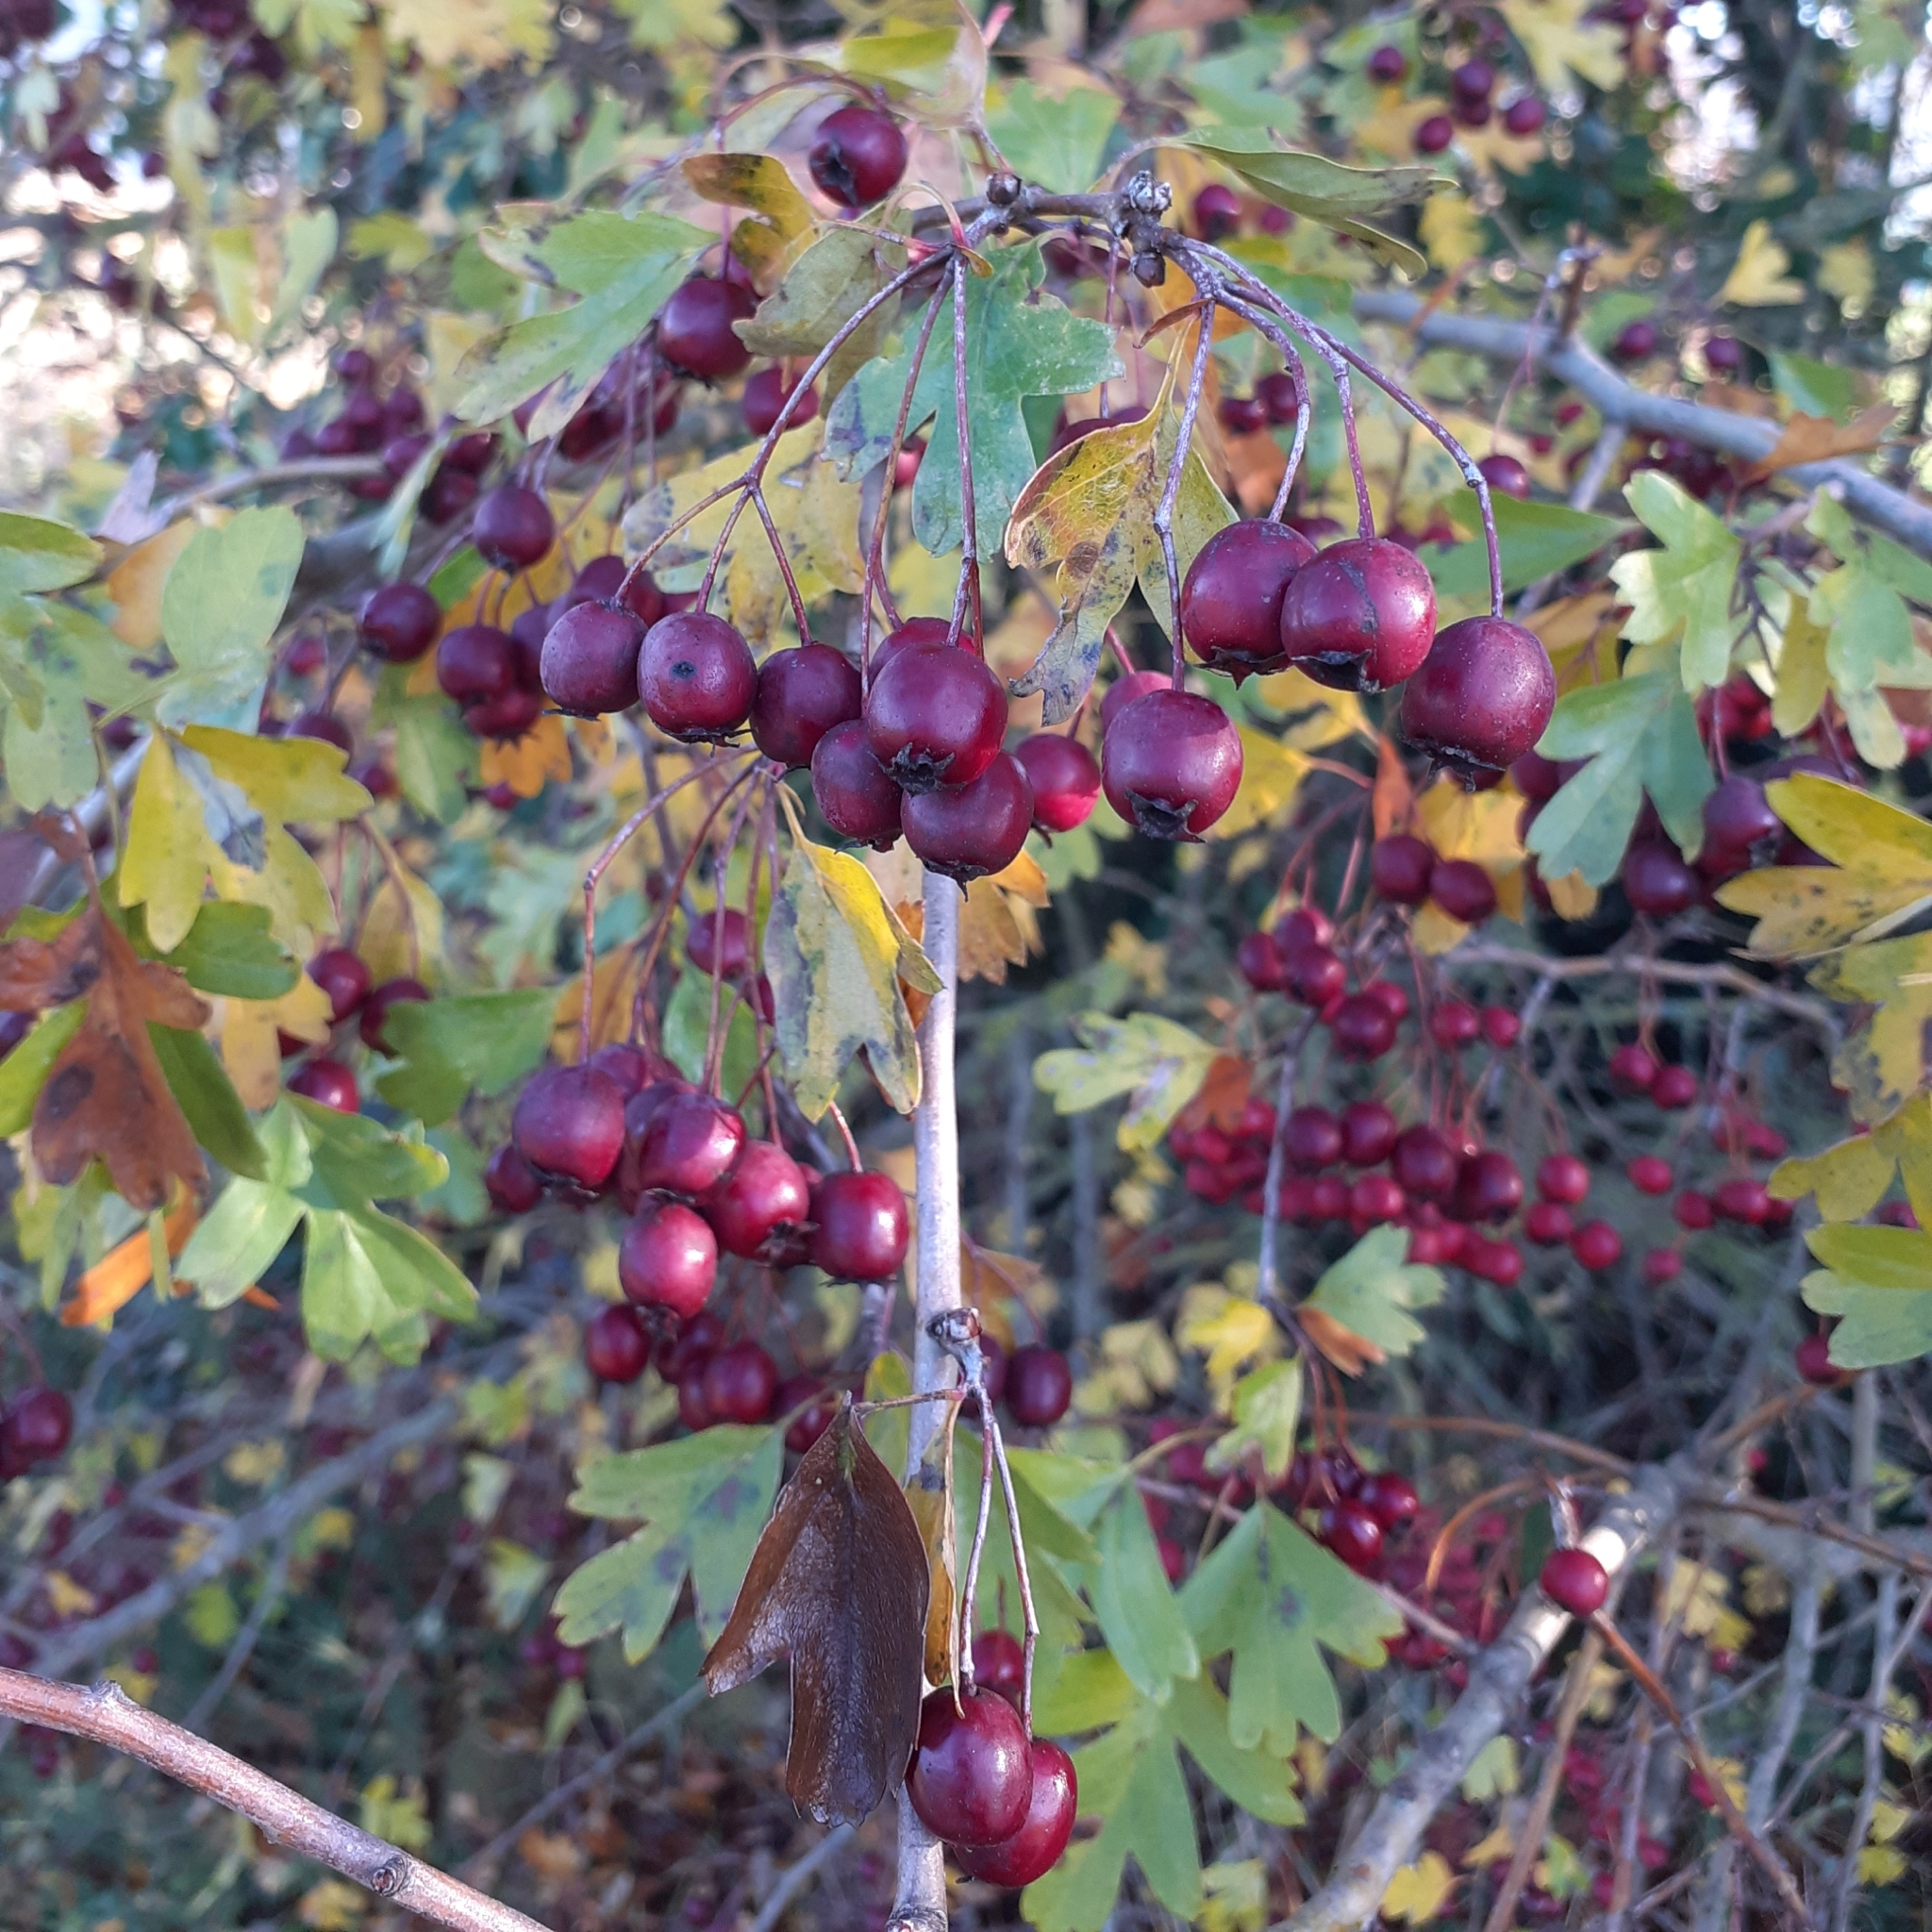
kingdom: Plantae
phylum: Tracheophyta
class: Magnoliopsida
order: Rosales
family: Rosaceae
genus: Crataegus
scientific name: Crataegus monogyna
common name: Hawthorn
